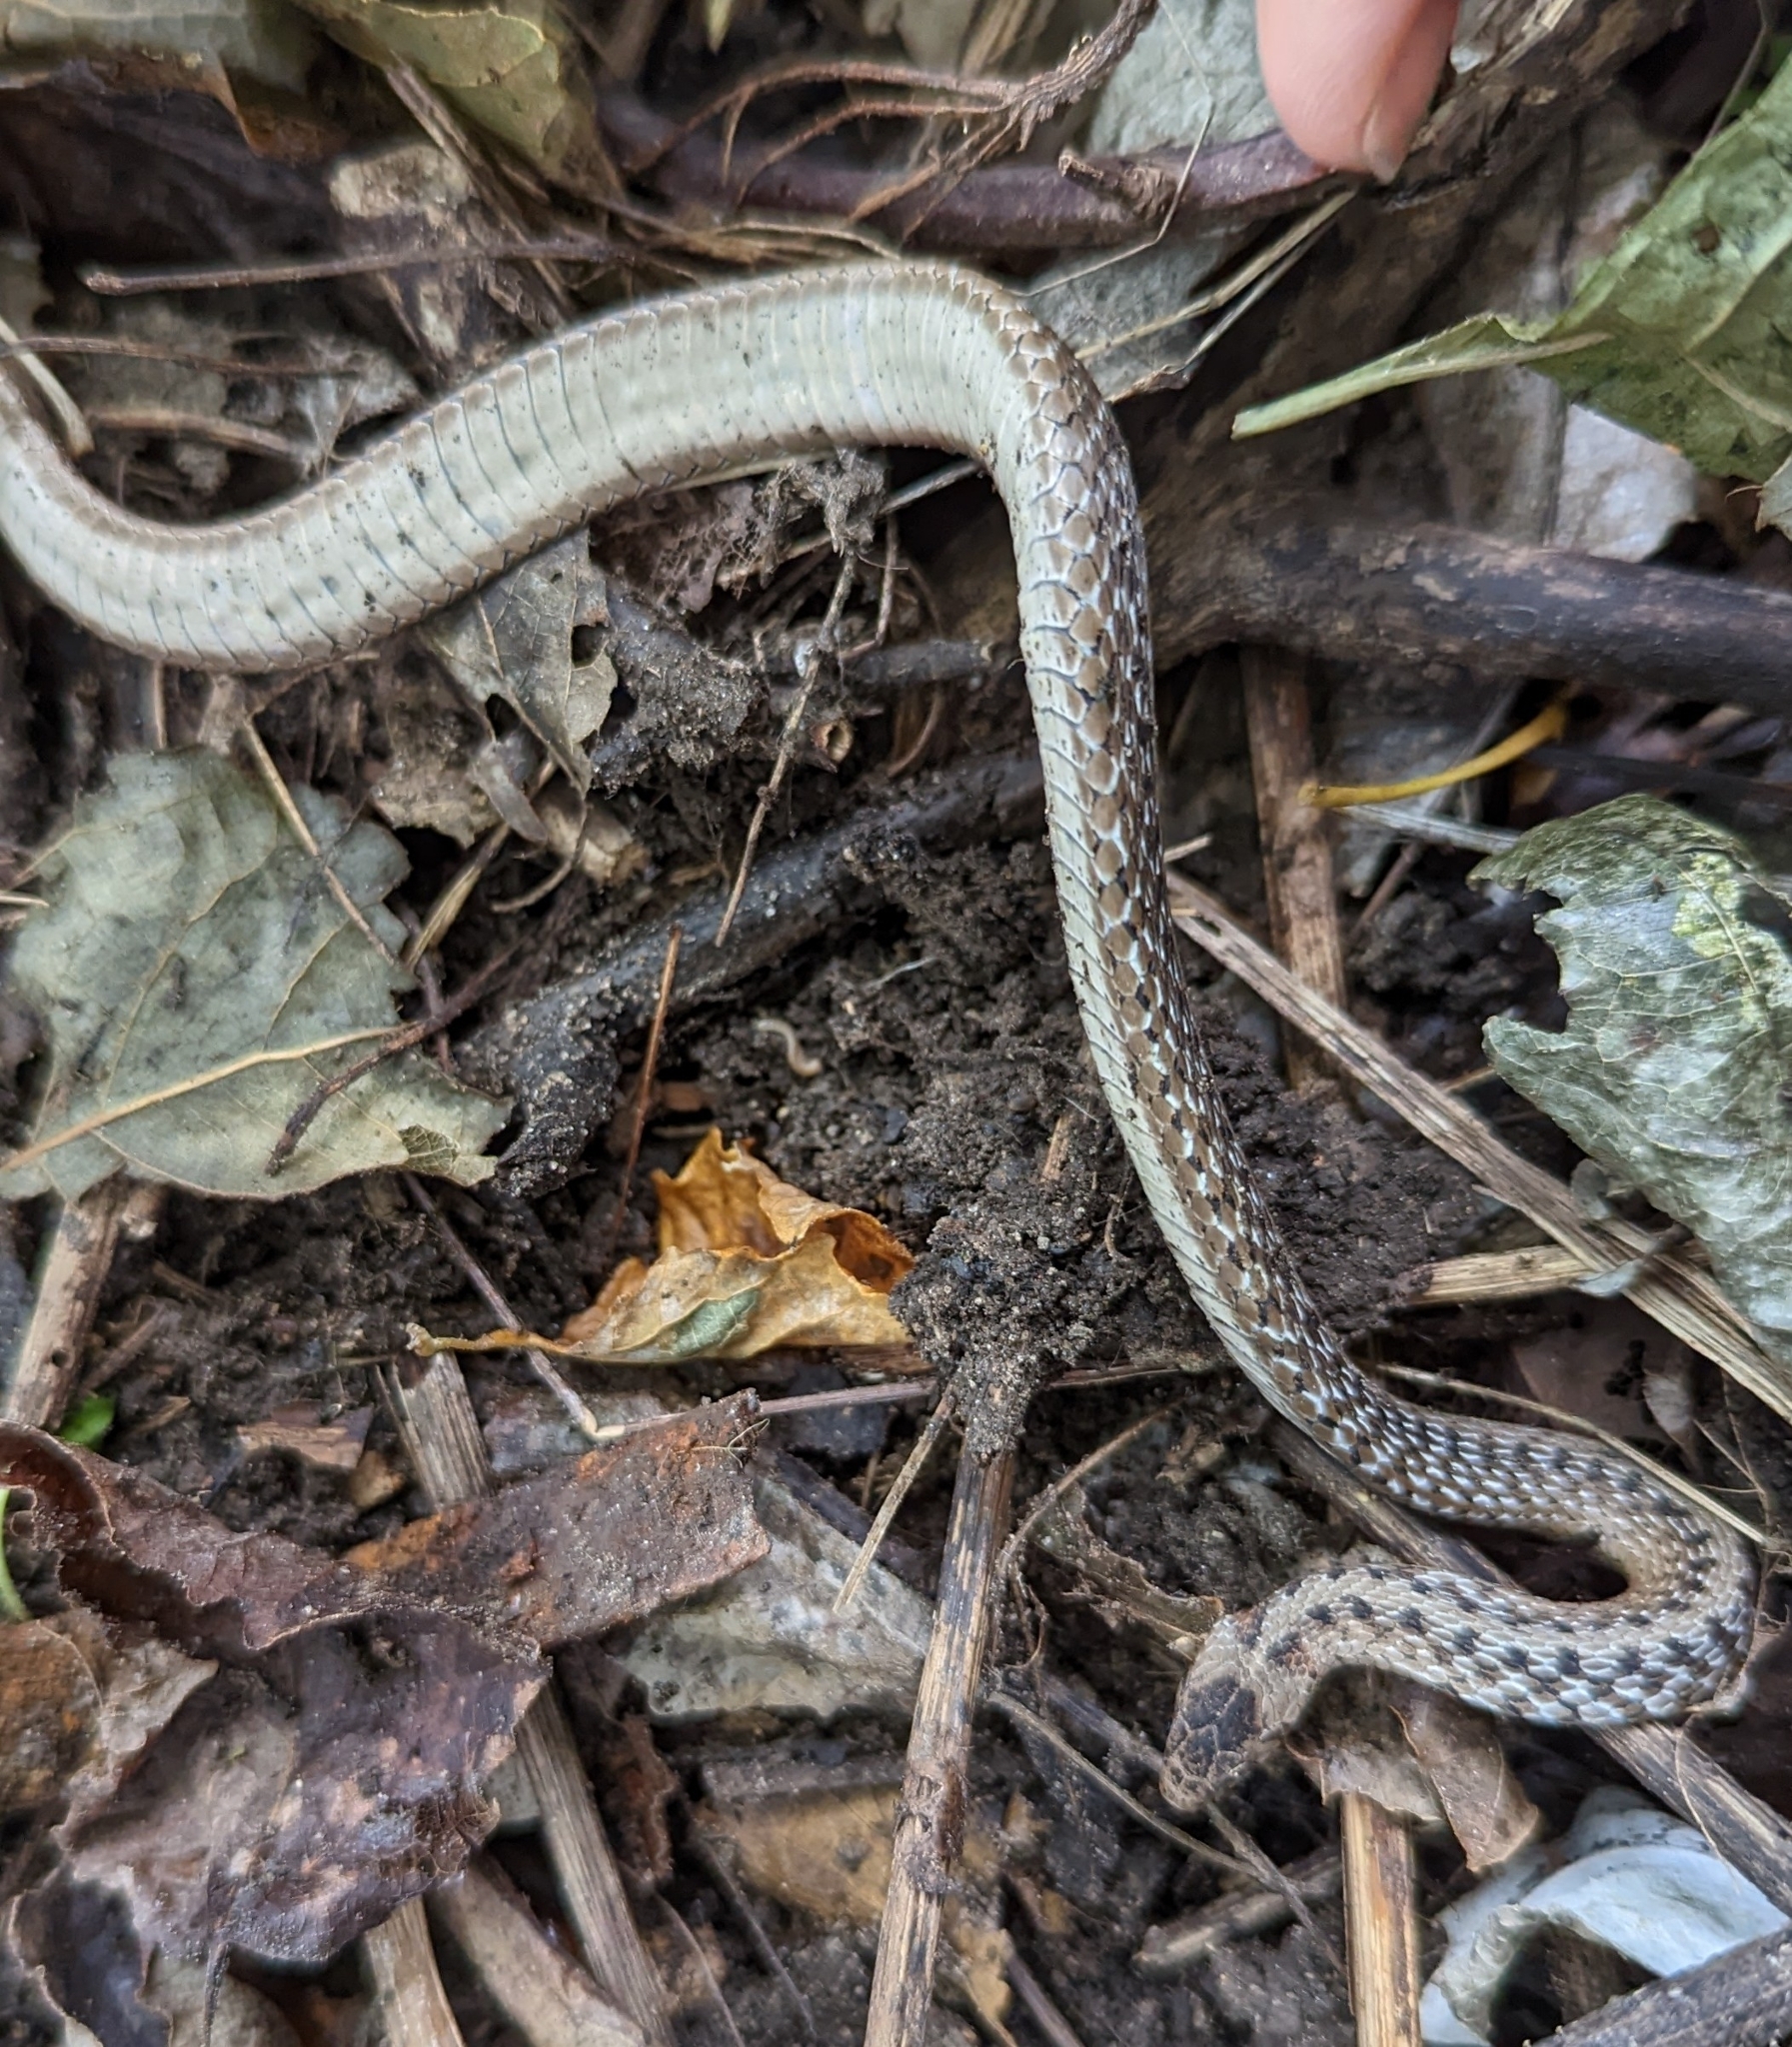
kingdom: Animalia
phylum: Chordata
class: Squamata
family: Colubridae
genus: Storeria
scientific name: Storeria dekayi
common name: (dekay’s) brown snake
